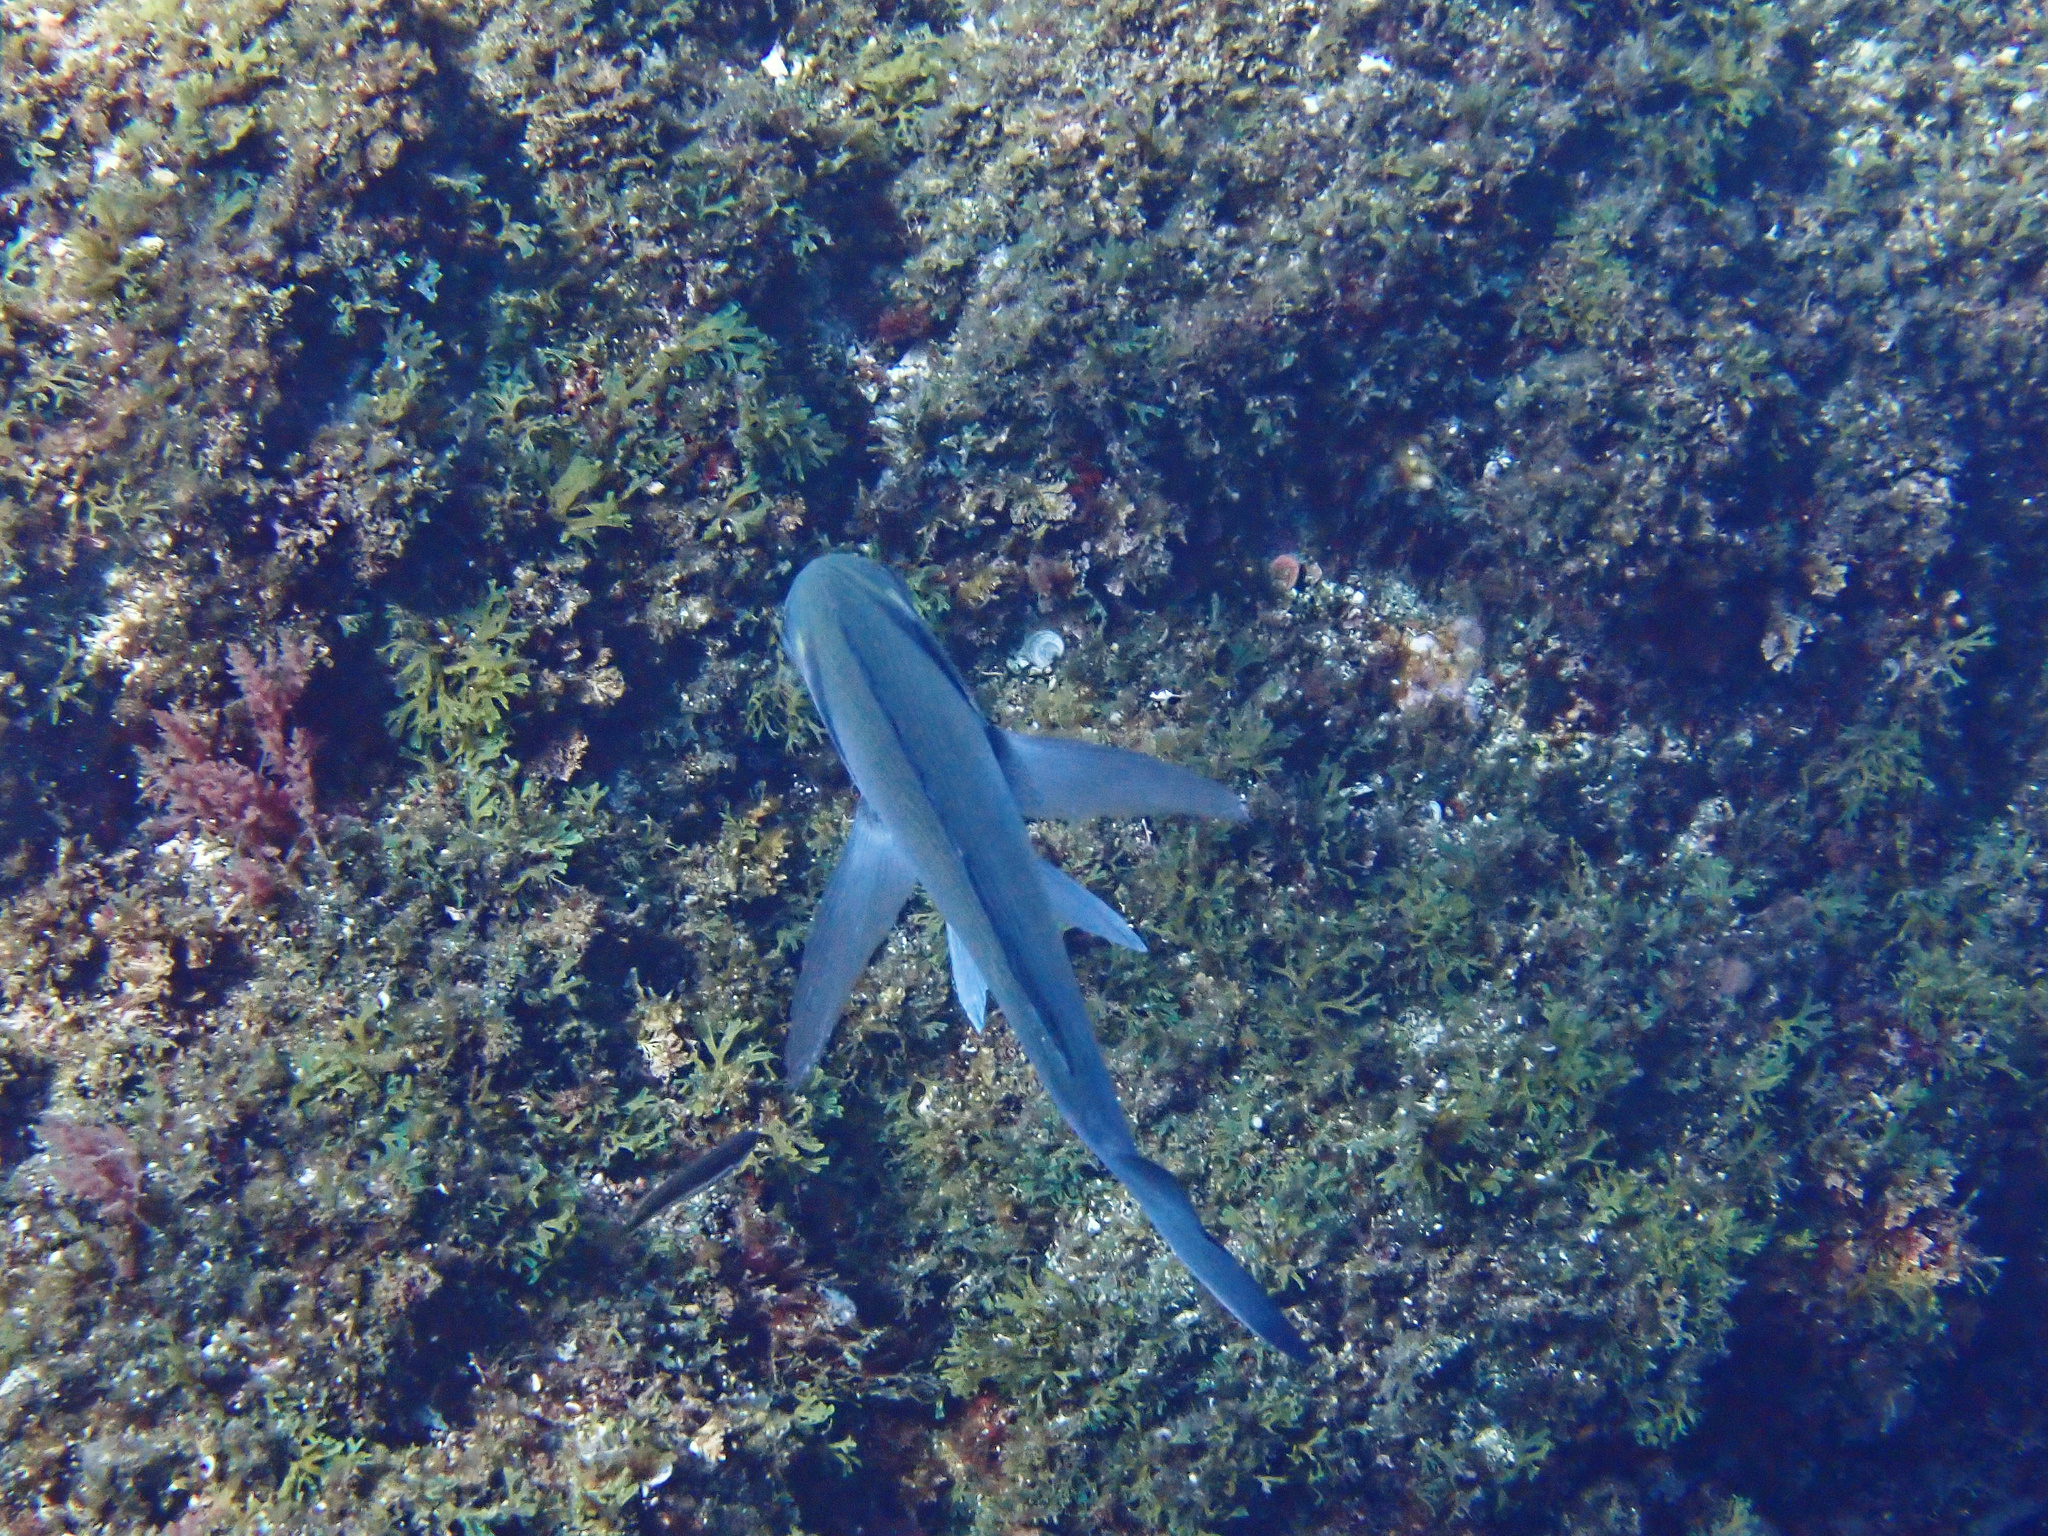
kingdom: Animalia
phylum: Chordata
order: Perciformes
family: Sparidae
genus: Sparus
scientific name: Sparus aurata
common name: Gilthead
